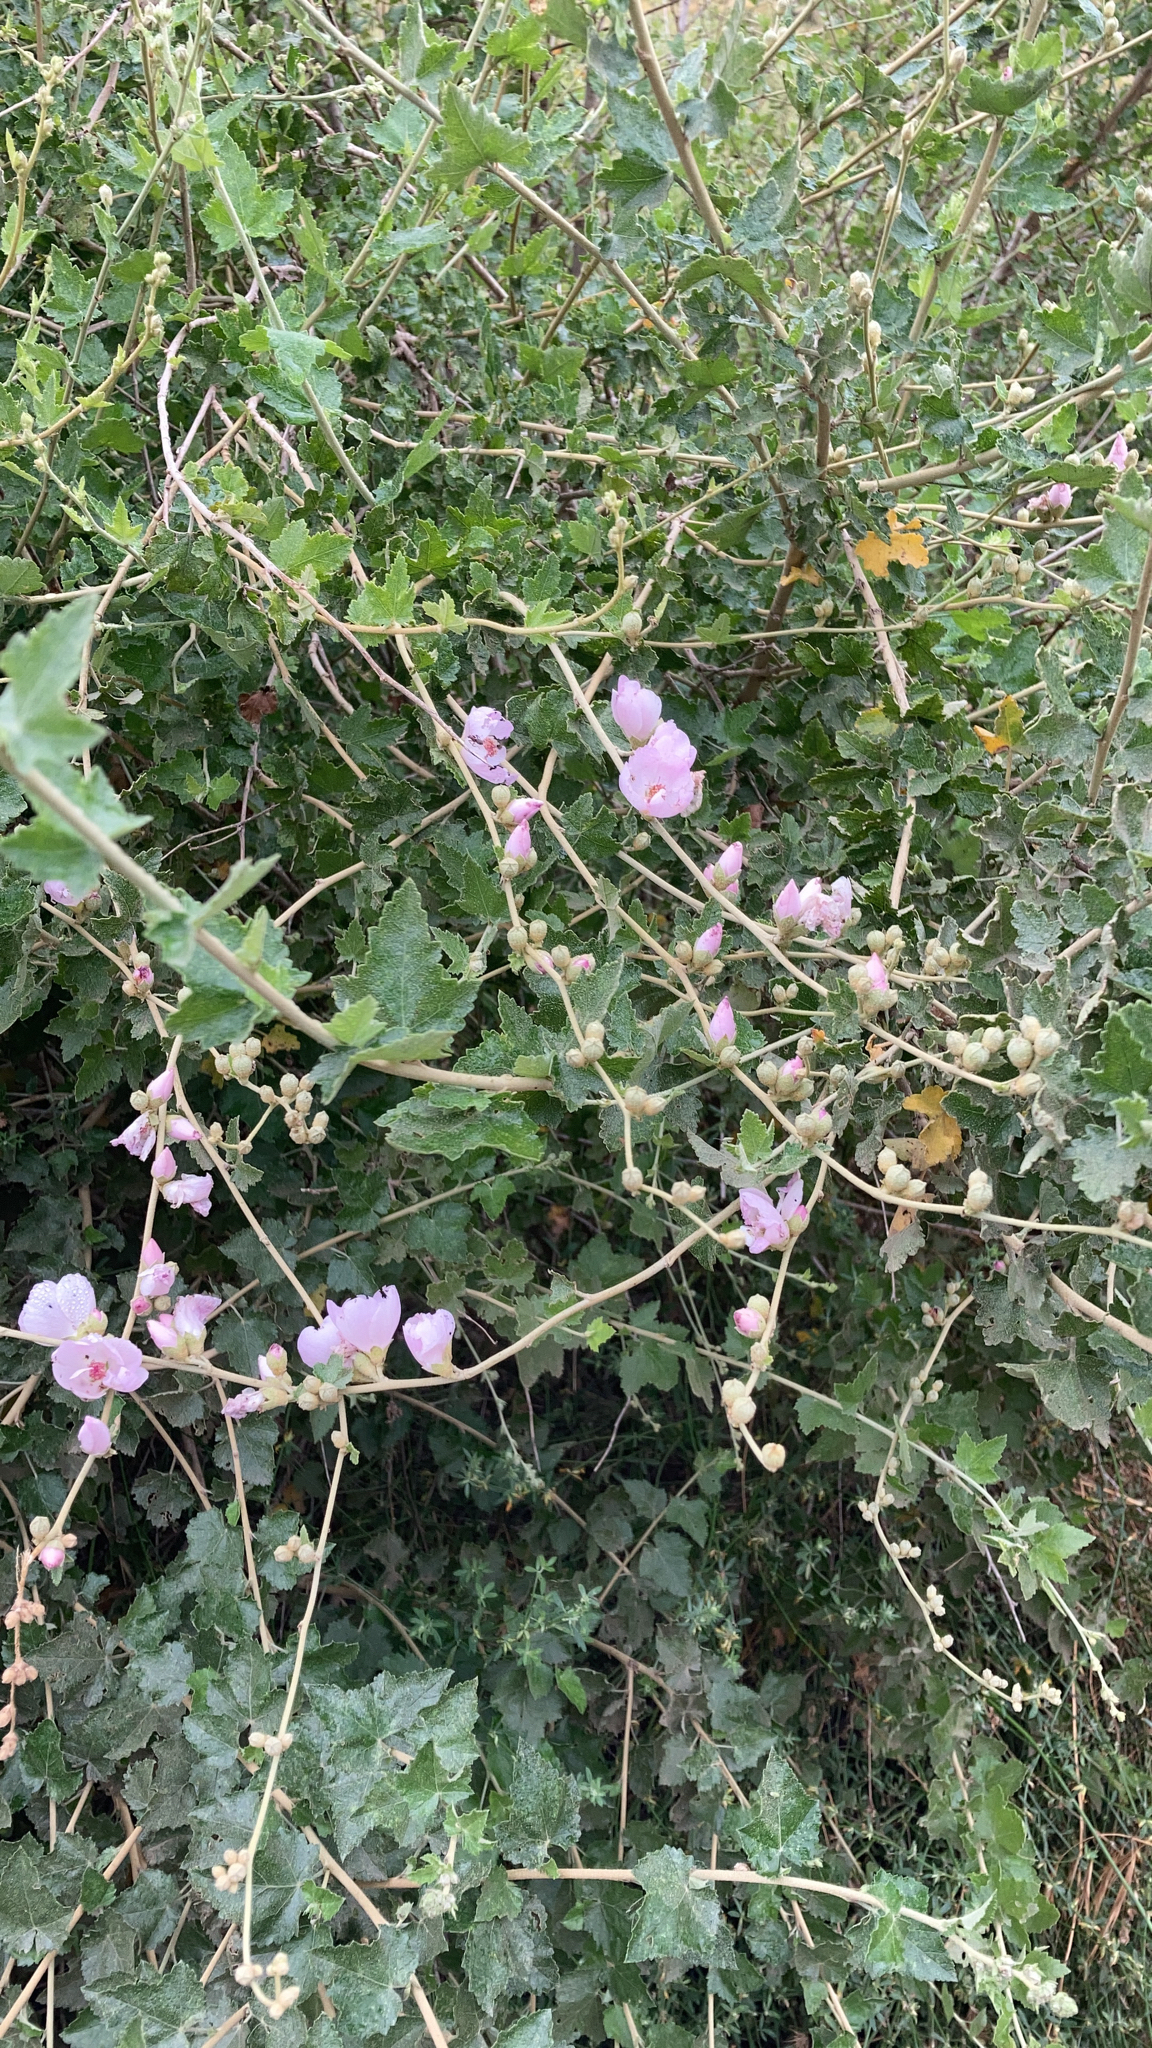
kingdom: Plantae
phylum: Tracheophyta
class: Magnoliopsida
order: Malvales
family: Malvaceae
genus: Malacothamnus
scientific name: Malacothamnus fasciculatus
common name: Sant cruz island bush-mallow
